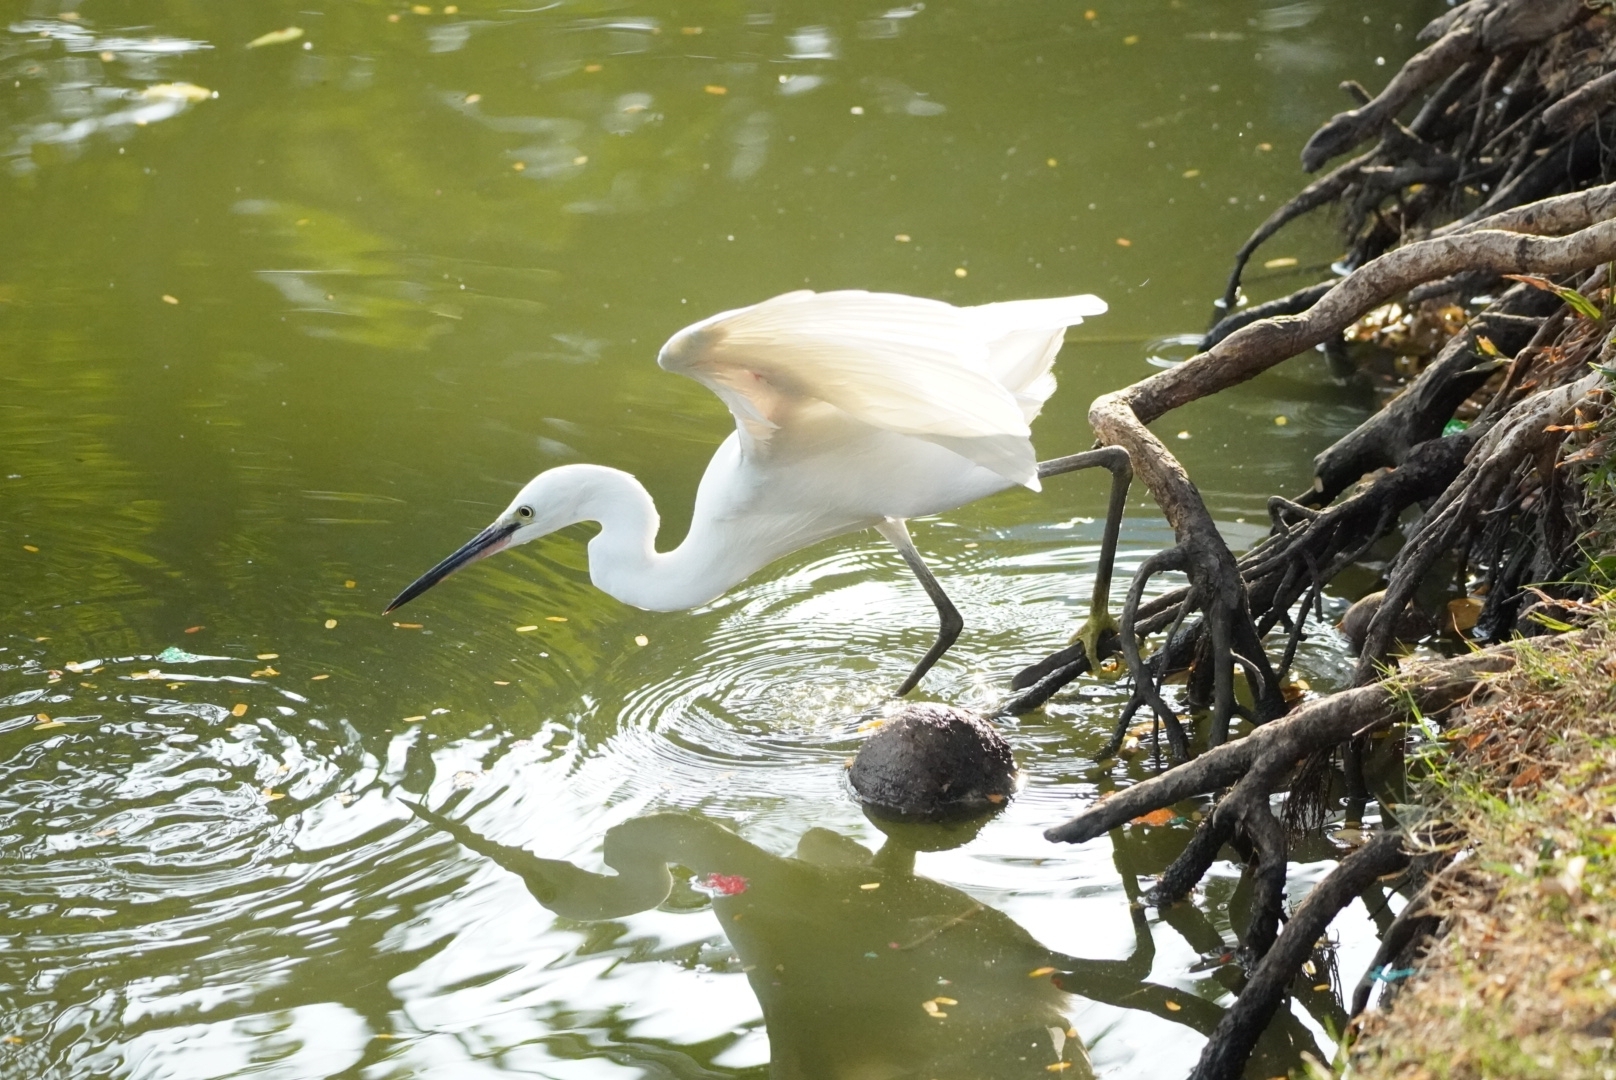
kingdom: Animalia
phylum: Chordata
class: Aves
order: Pelecaniformes
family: Ardeidae
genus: Egretta
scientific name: Egretta garzetta
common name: Little egret
